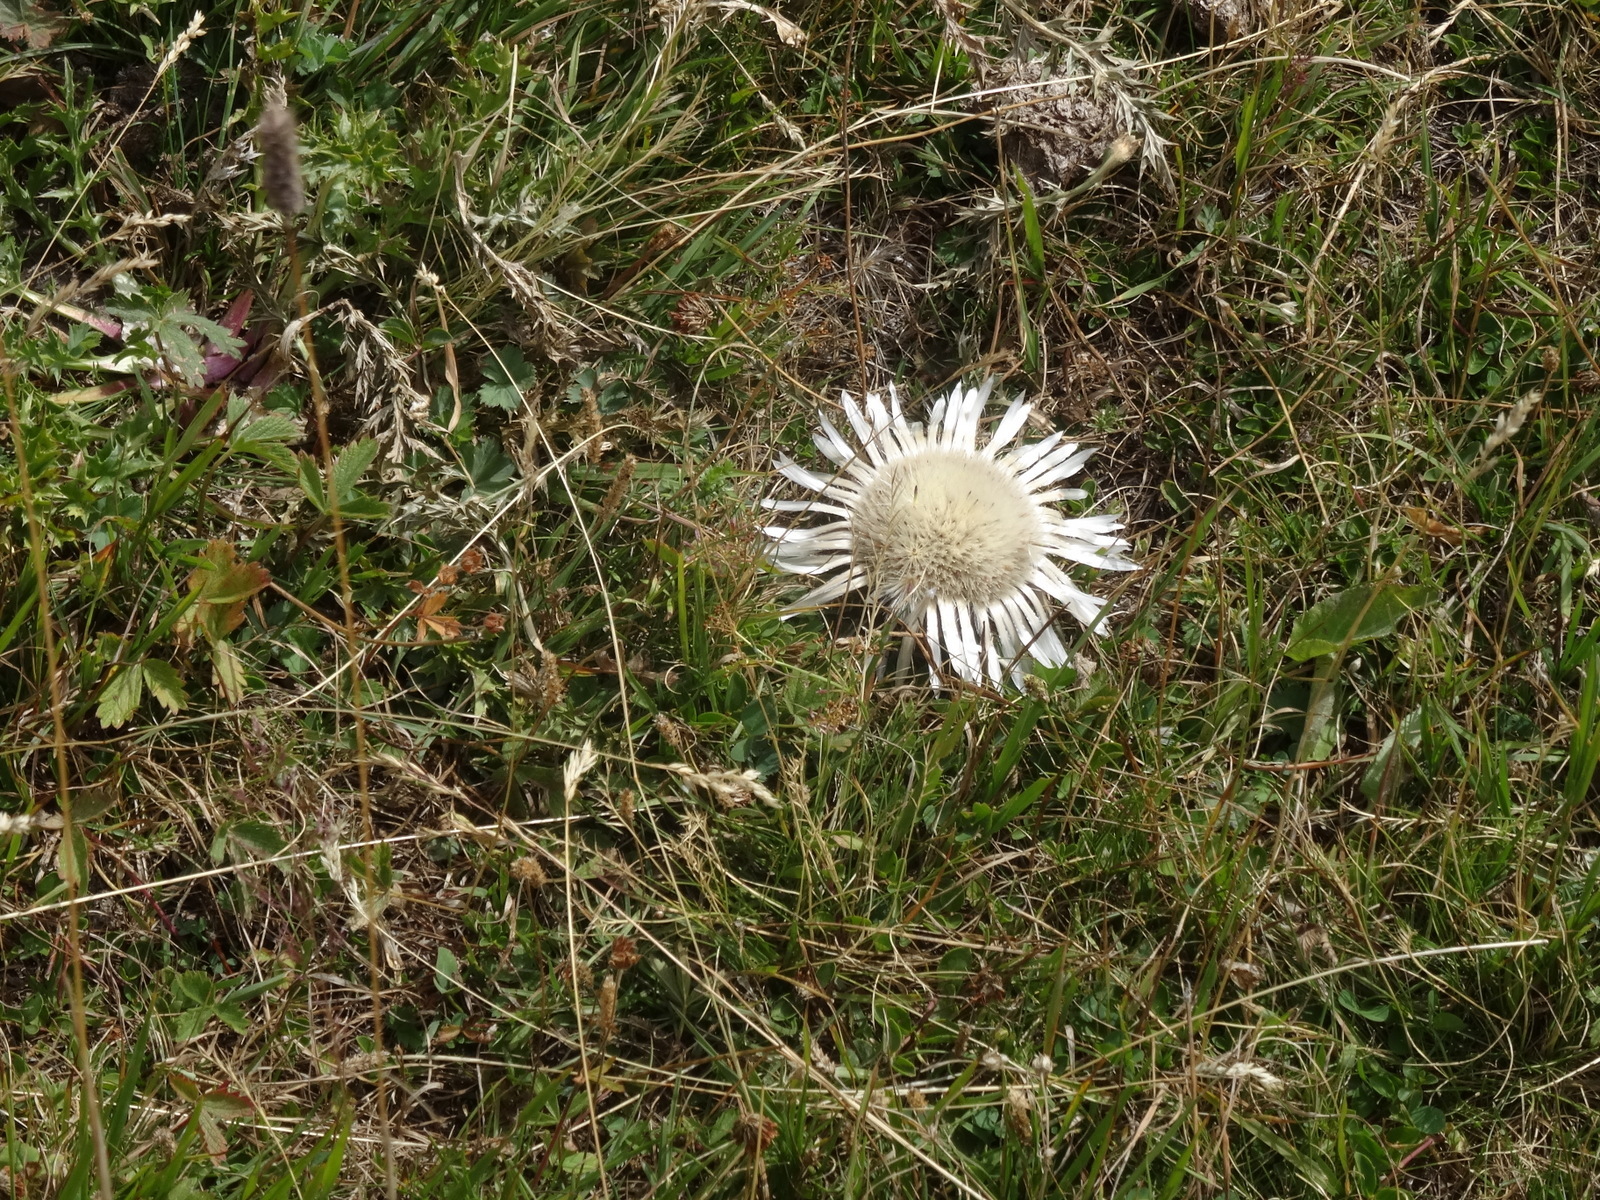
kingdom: Plantae
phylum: Tracheophyta
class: Magnoliopsida
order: Asterales
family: Asteraceae
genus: Carlina
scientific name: Carlina acaulis
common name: Stemless carline thistle
